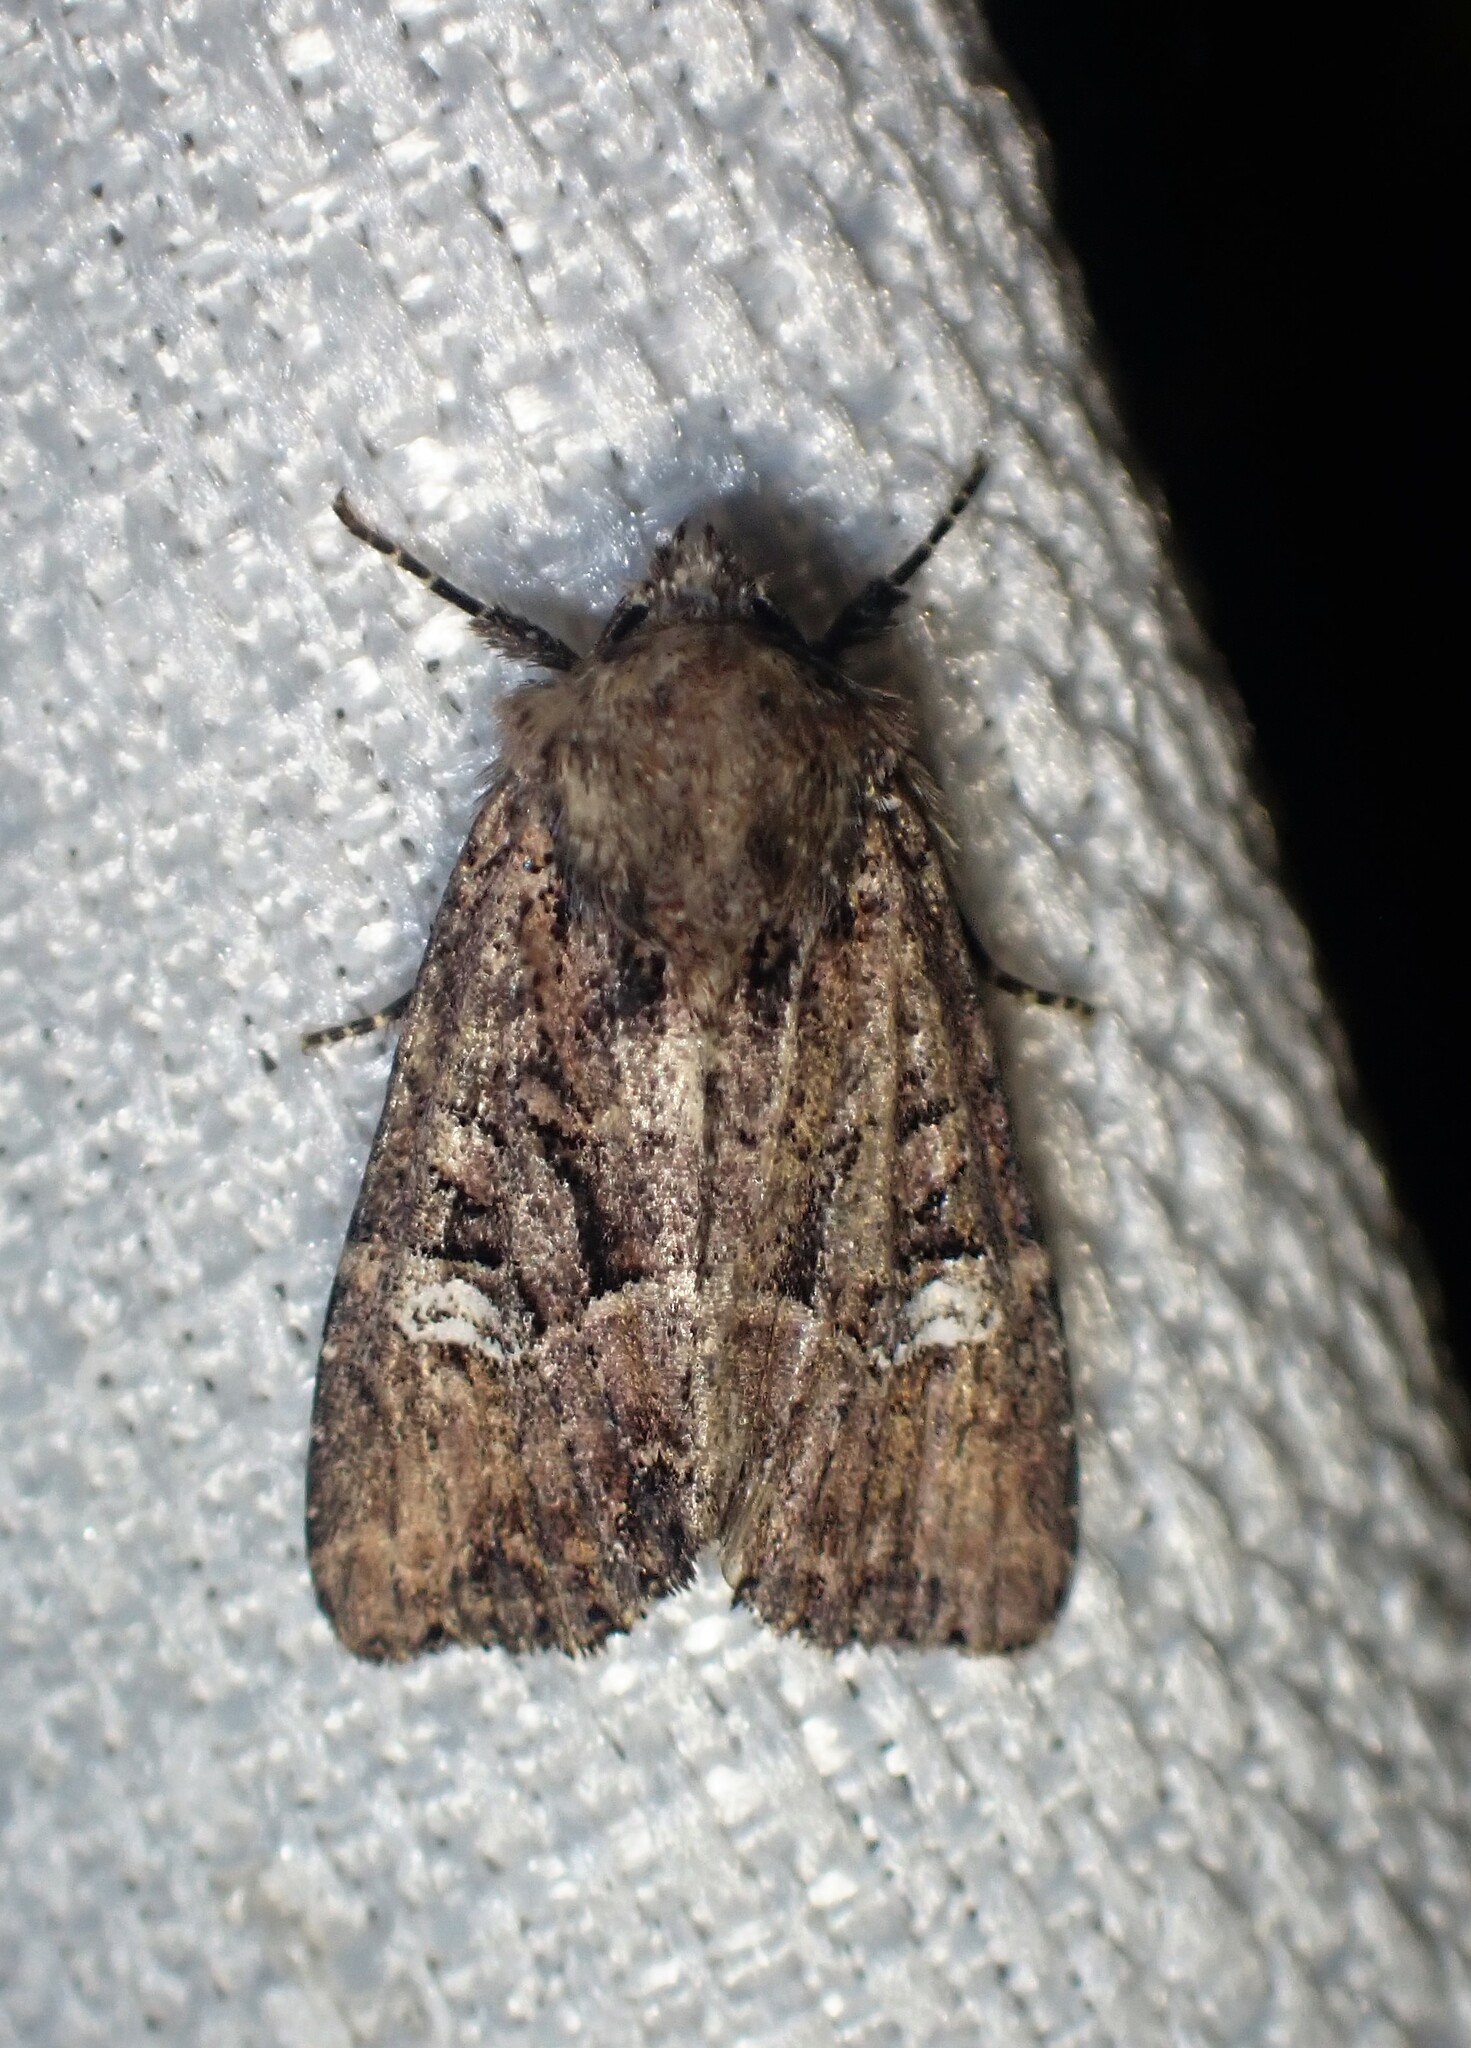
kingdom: Animalia
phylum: Arthropoda
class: Insecta
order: Lepidoptera
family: Noctuidae
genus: Mesapamea
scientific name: Mesapamea storai
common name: Owlet moth
